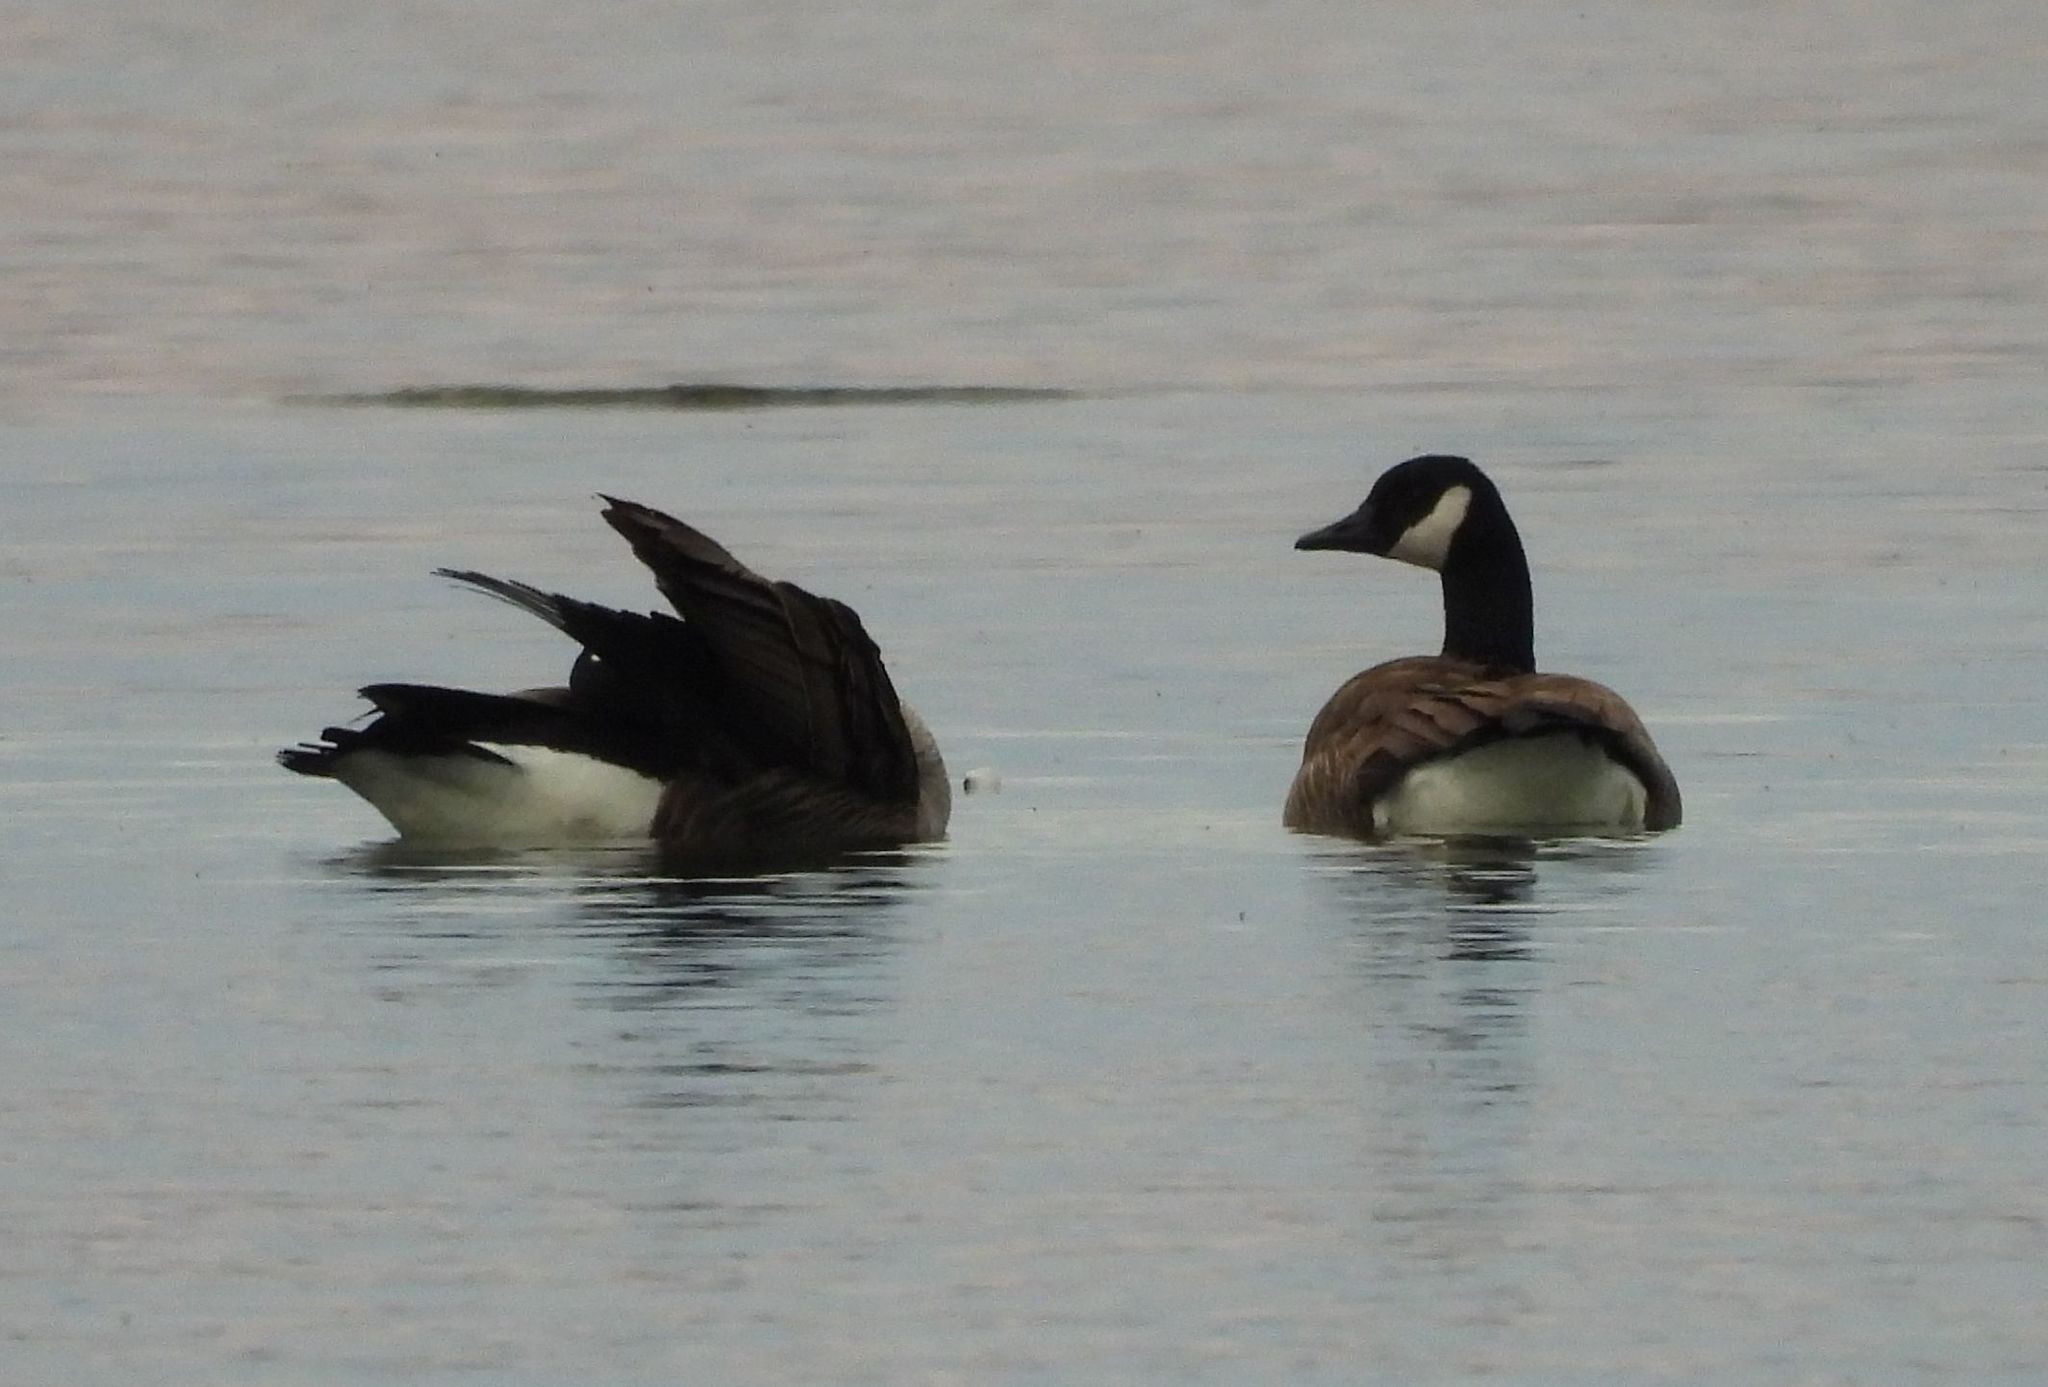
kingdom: Animalia
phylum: Chordata
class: Aves
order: Anseriformes
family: Anatidae
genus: Branta
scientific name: Branta canadensis
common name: Canada goose
